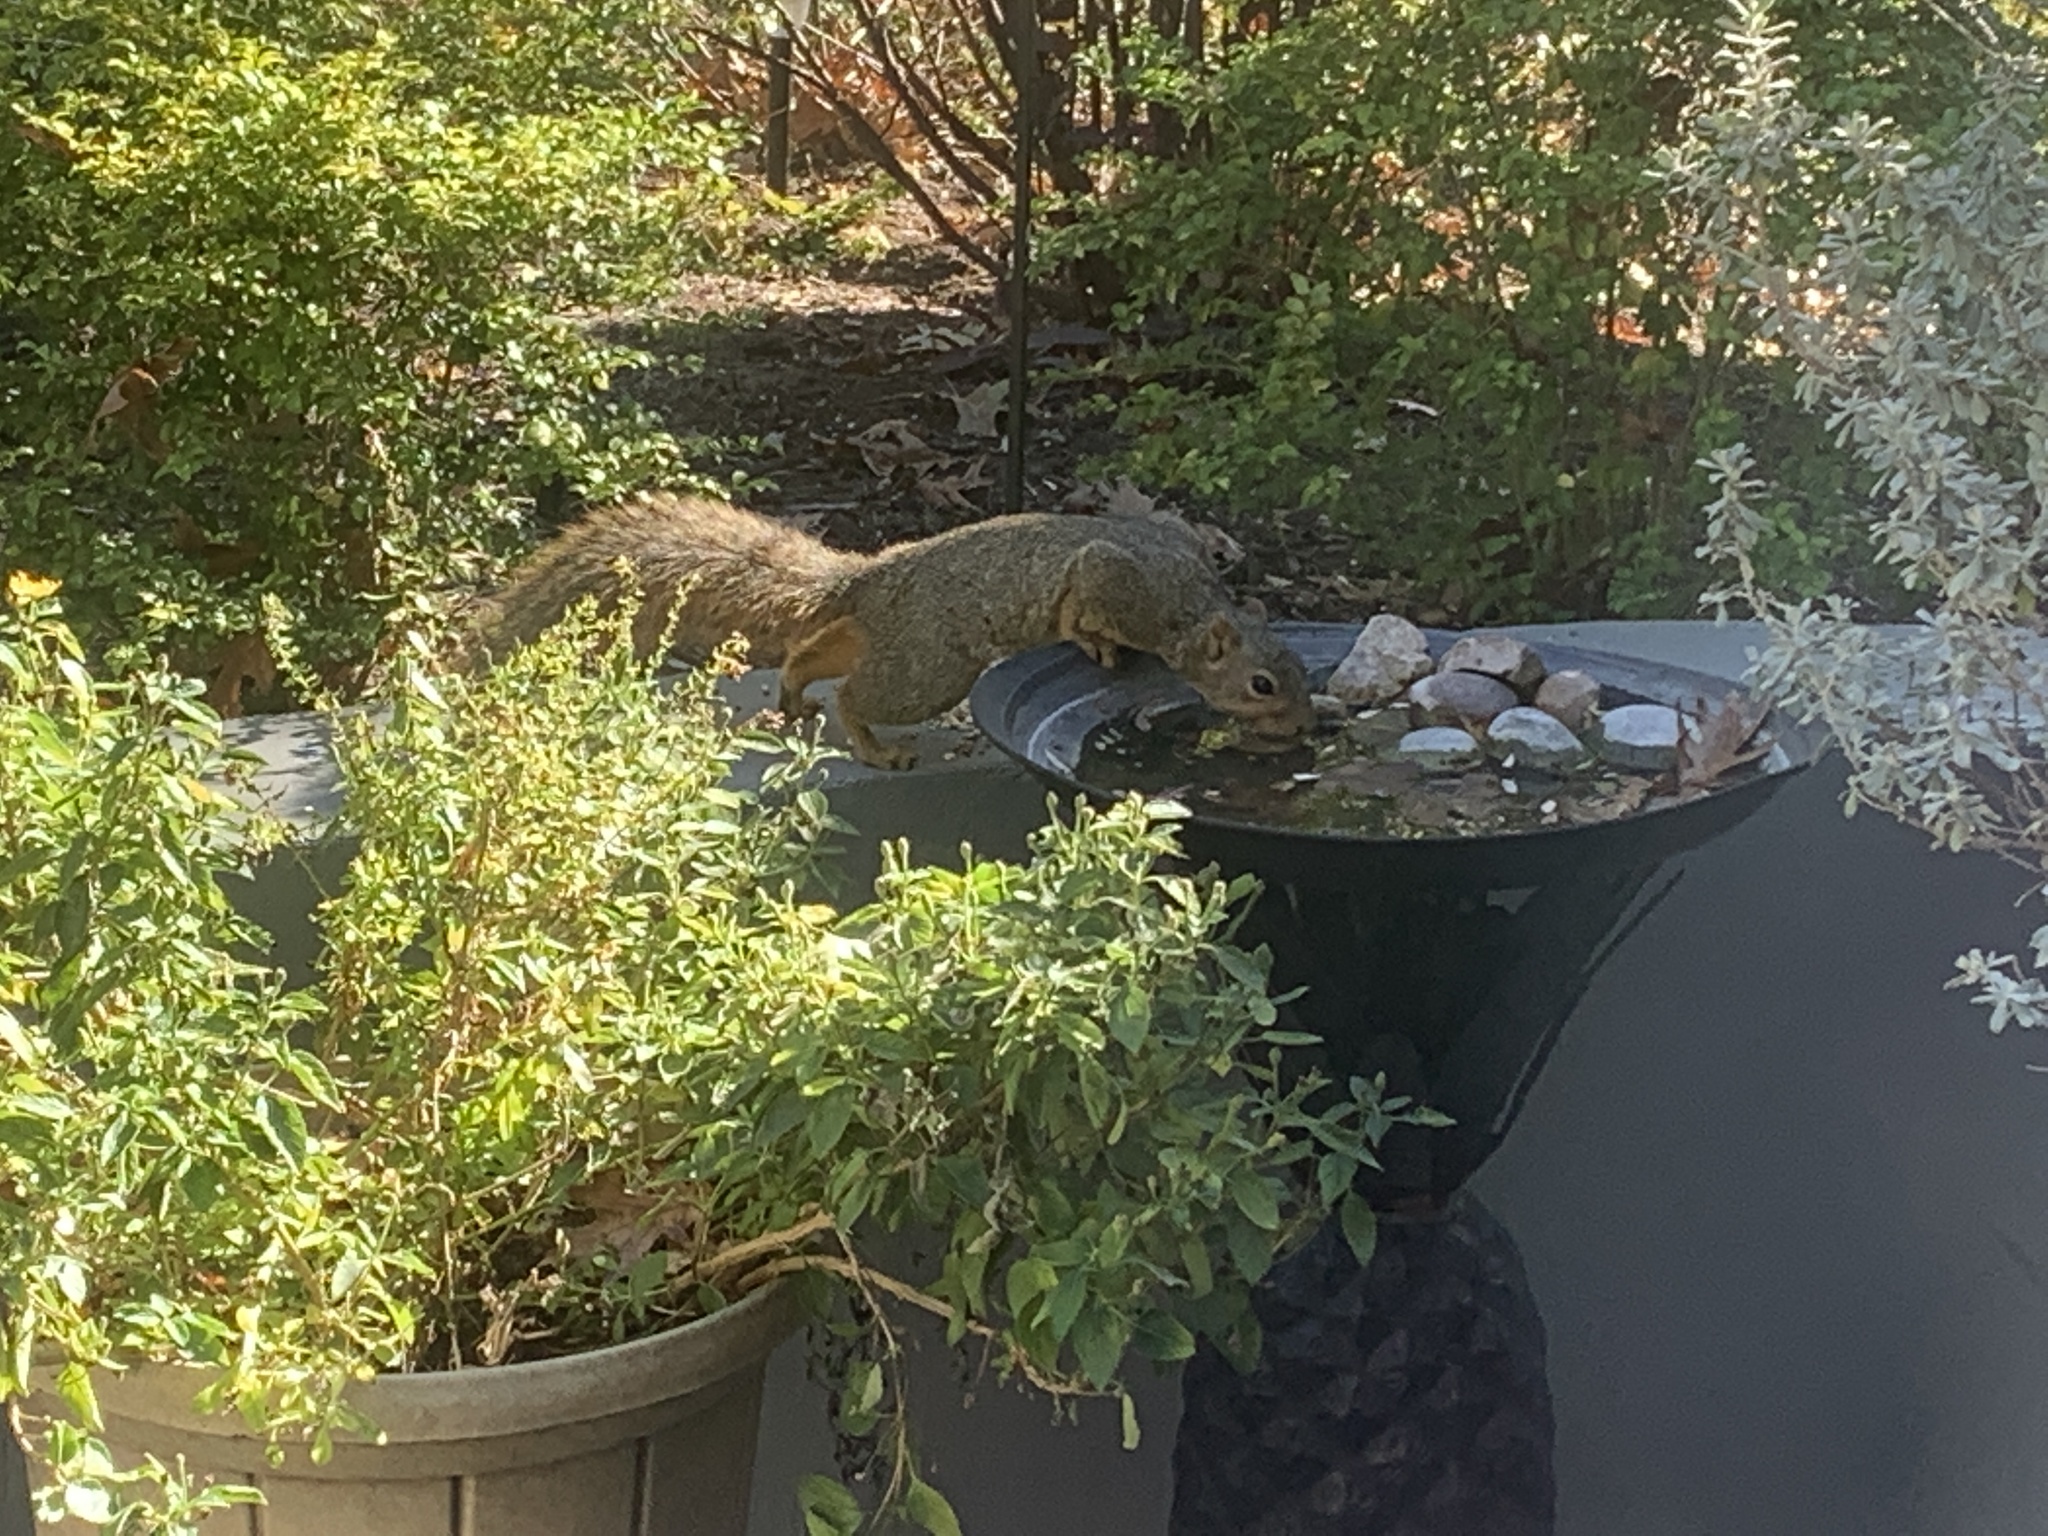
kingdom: Animalia
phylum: Chordata
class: Mammalia
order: Rodentia
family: Sciuridae
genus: Sciurus
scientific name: Sciurus niger
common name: Fox squirrel
